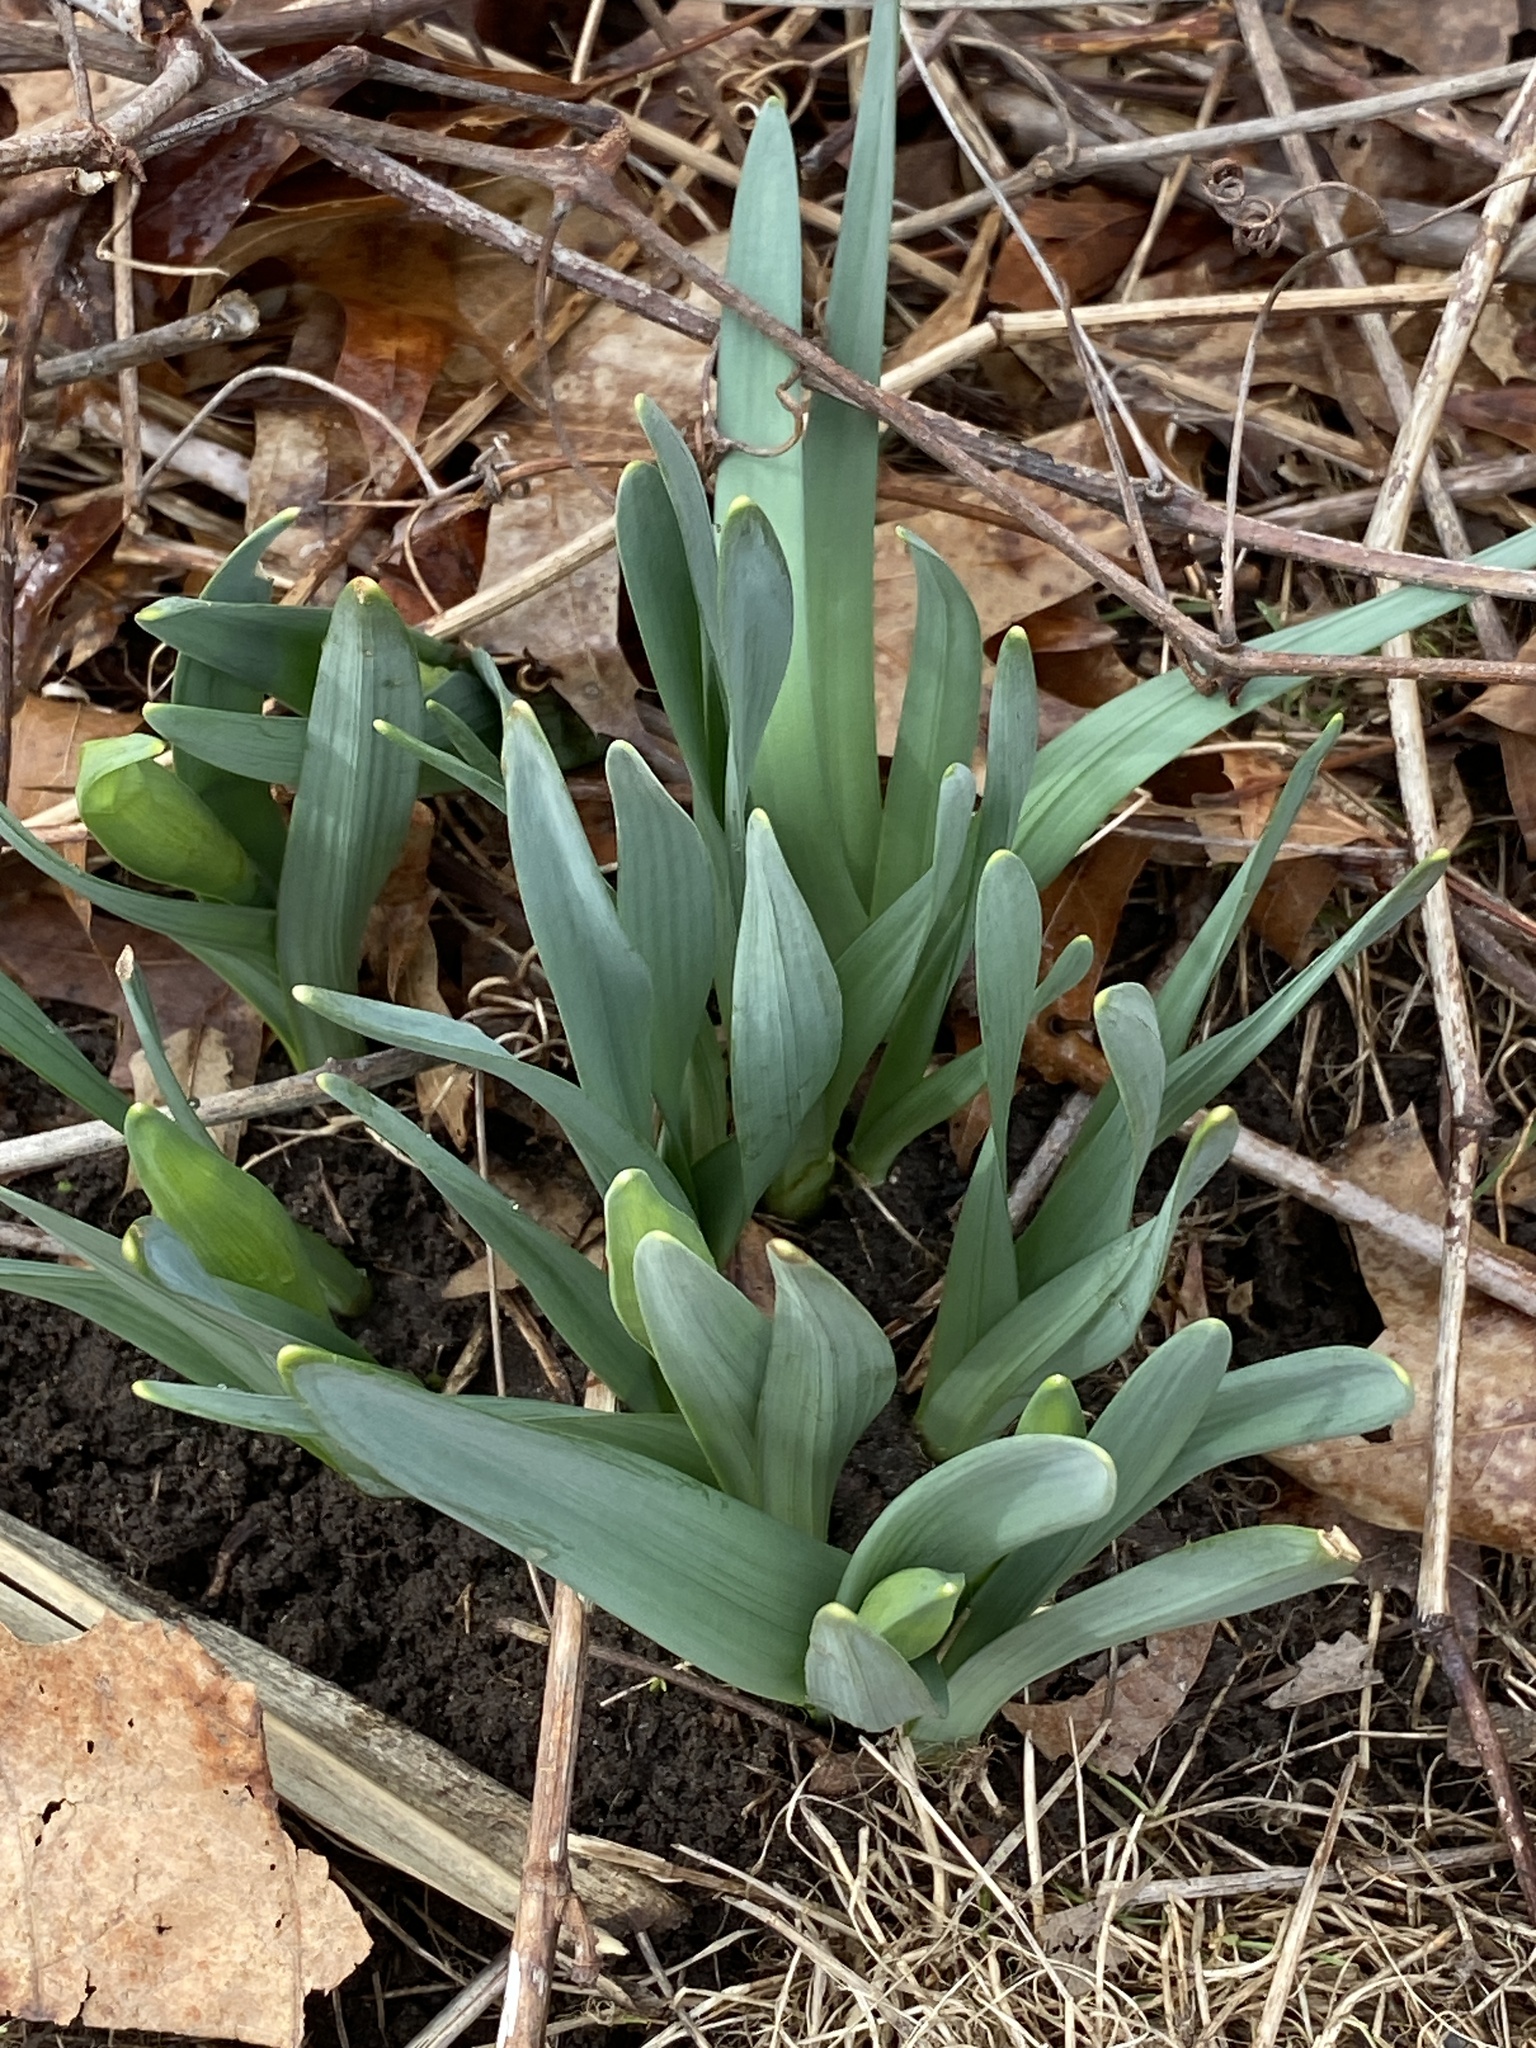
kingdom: Plantae
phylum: Tracheophyta
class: Liliopsida
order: Asparagales
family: Amaryllidaceae
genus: Narcissus
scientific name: Narcissus
